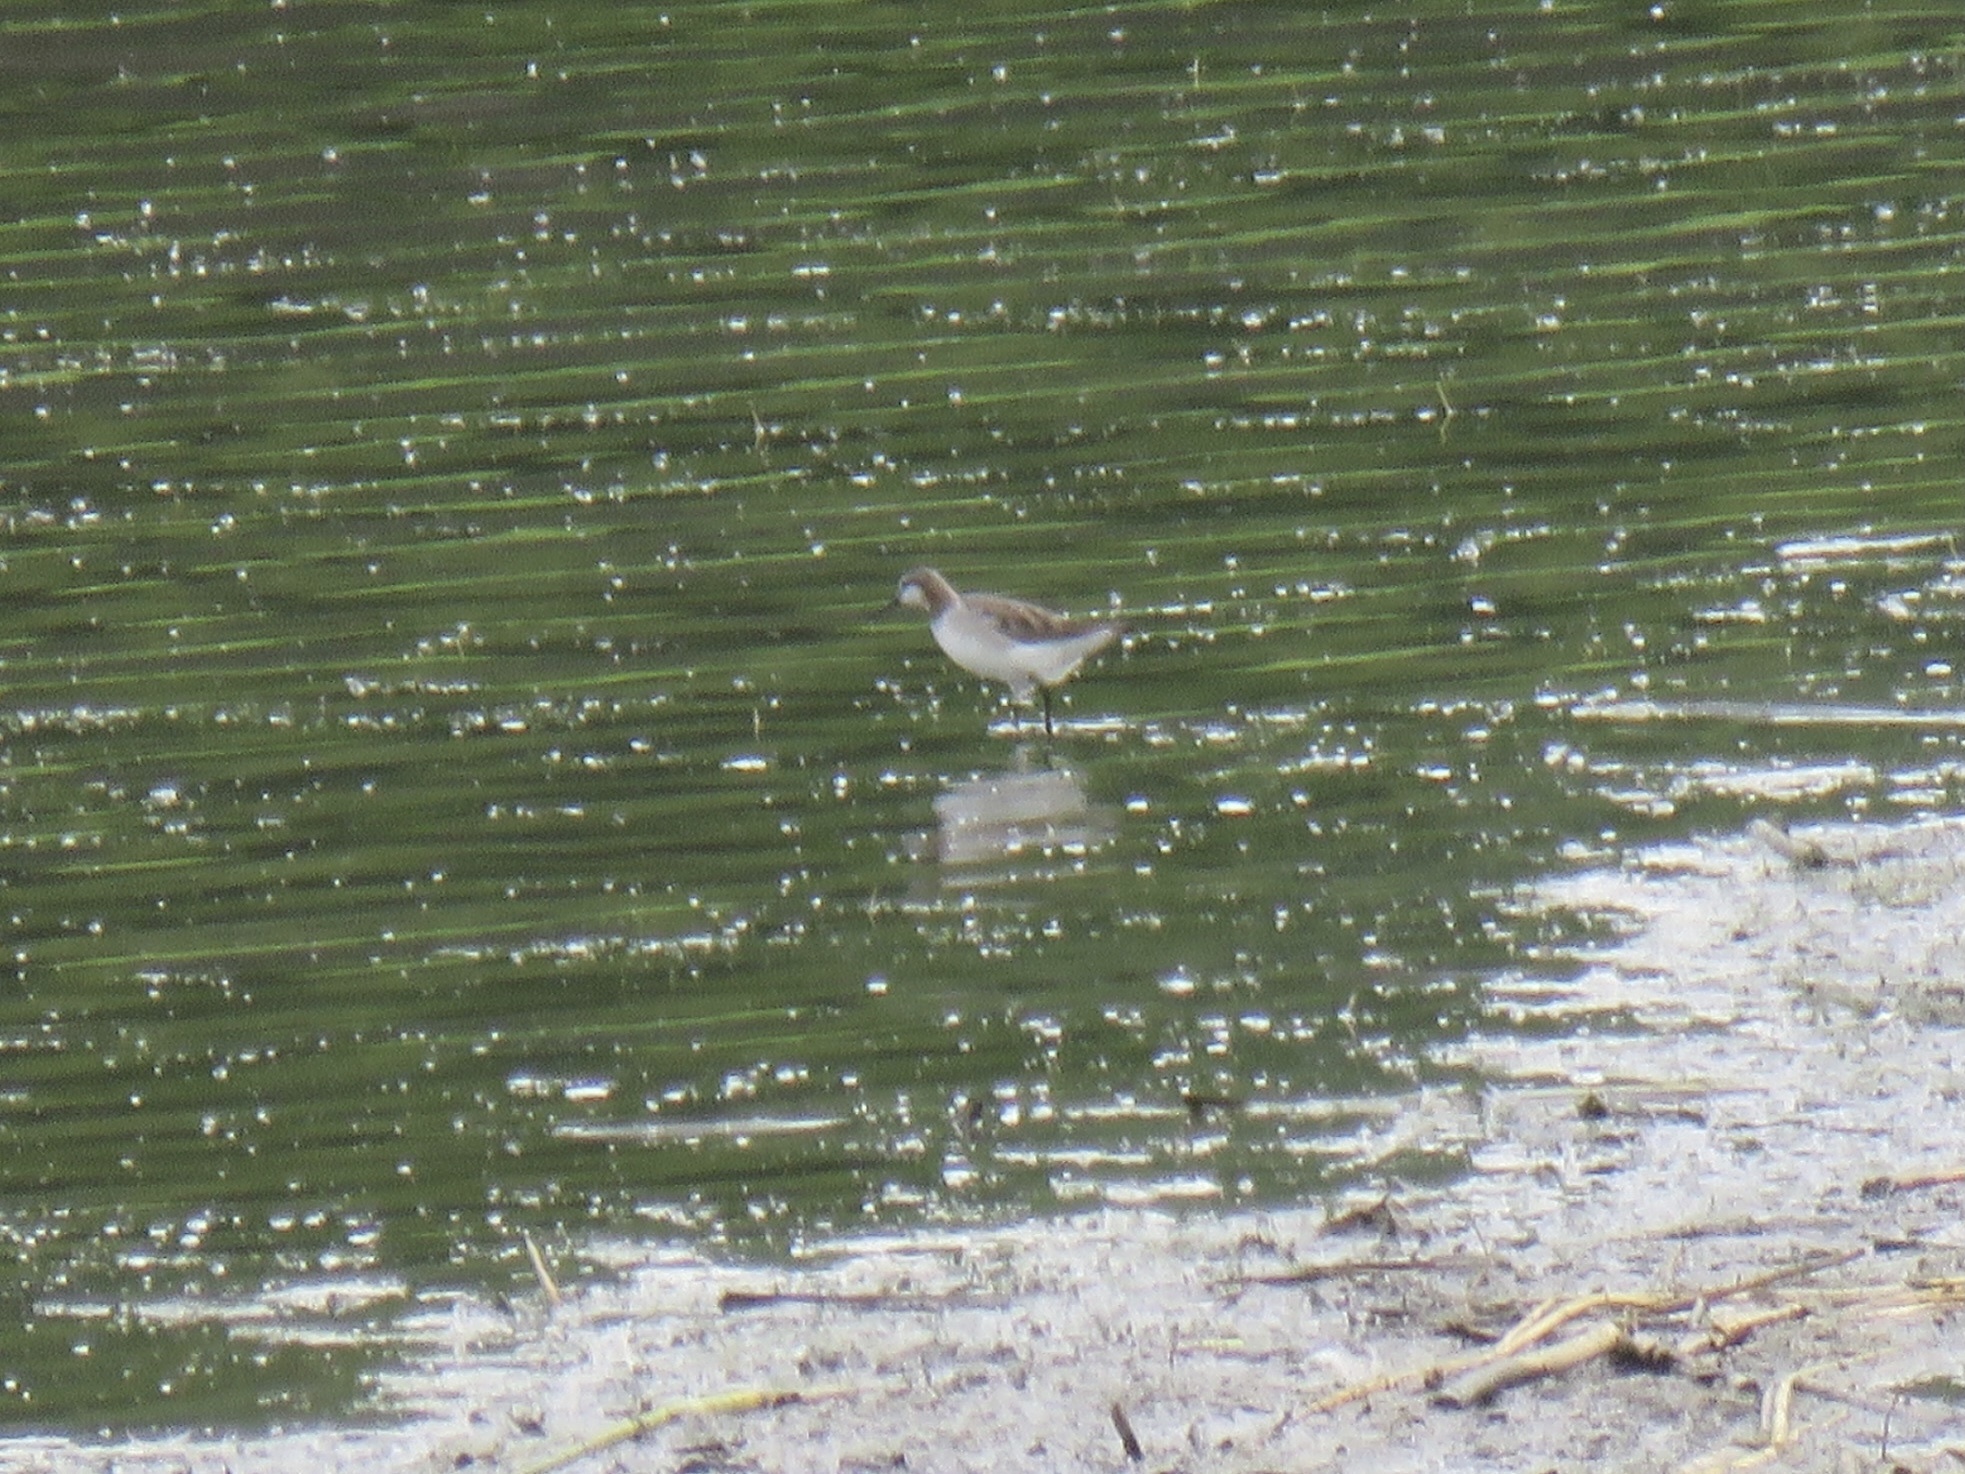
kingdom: Animalia
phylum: Chordata
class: Aves
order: Charadriiformes
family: Scolopacidae
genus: Phalaropus
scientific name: Phalaropus tricolor
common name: Wilson's phalarope
